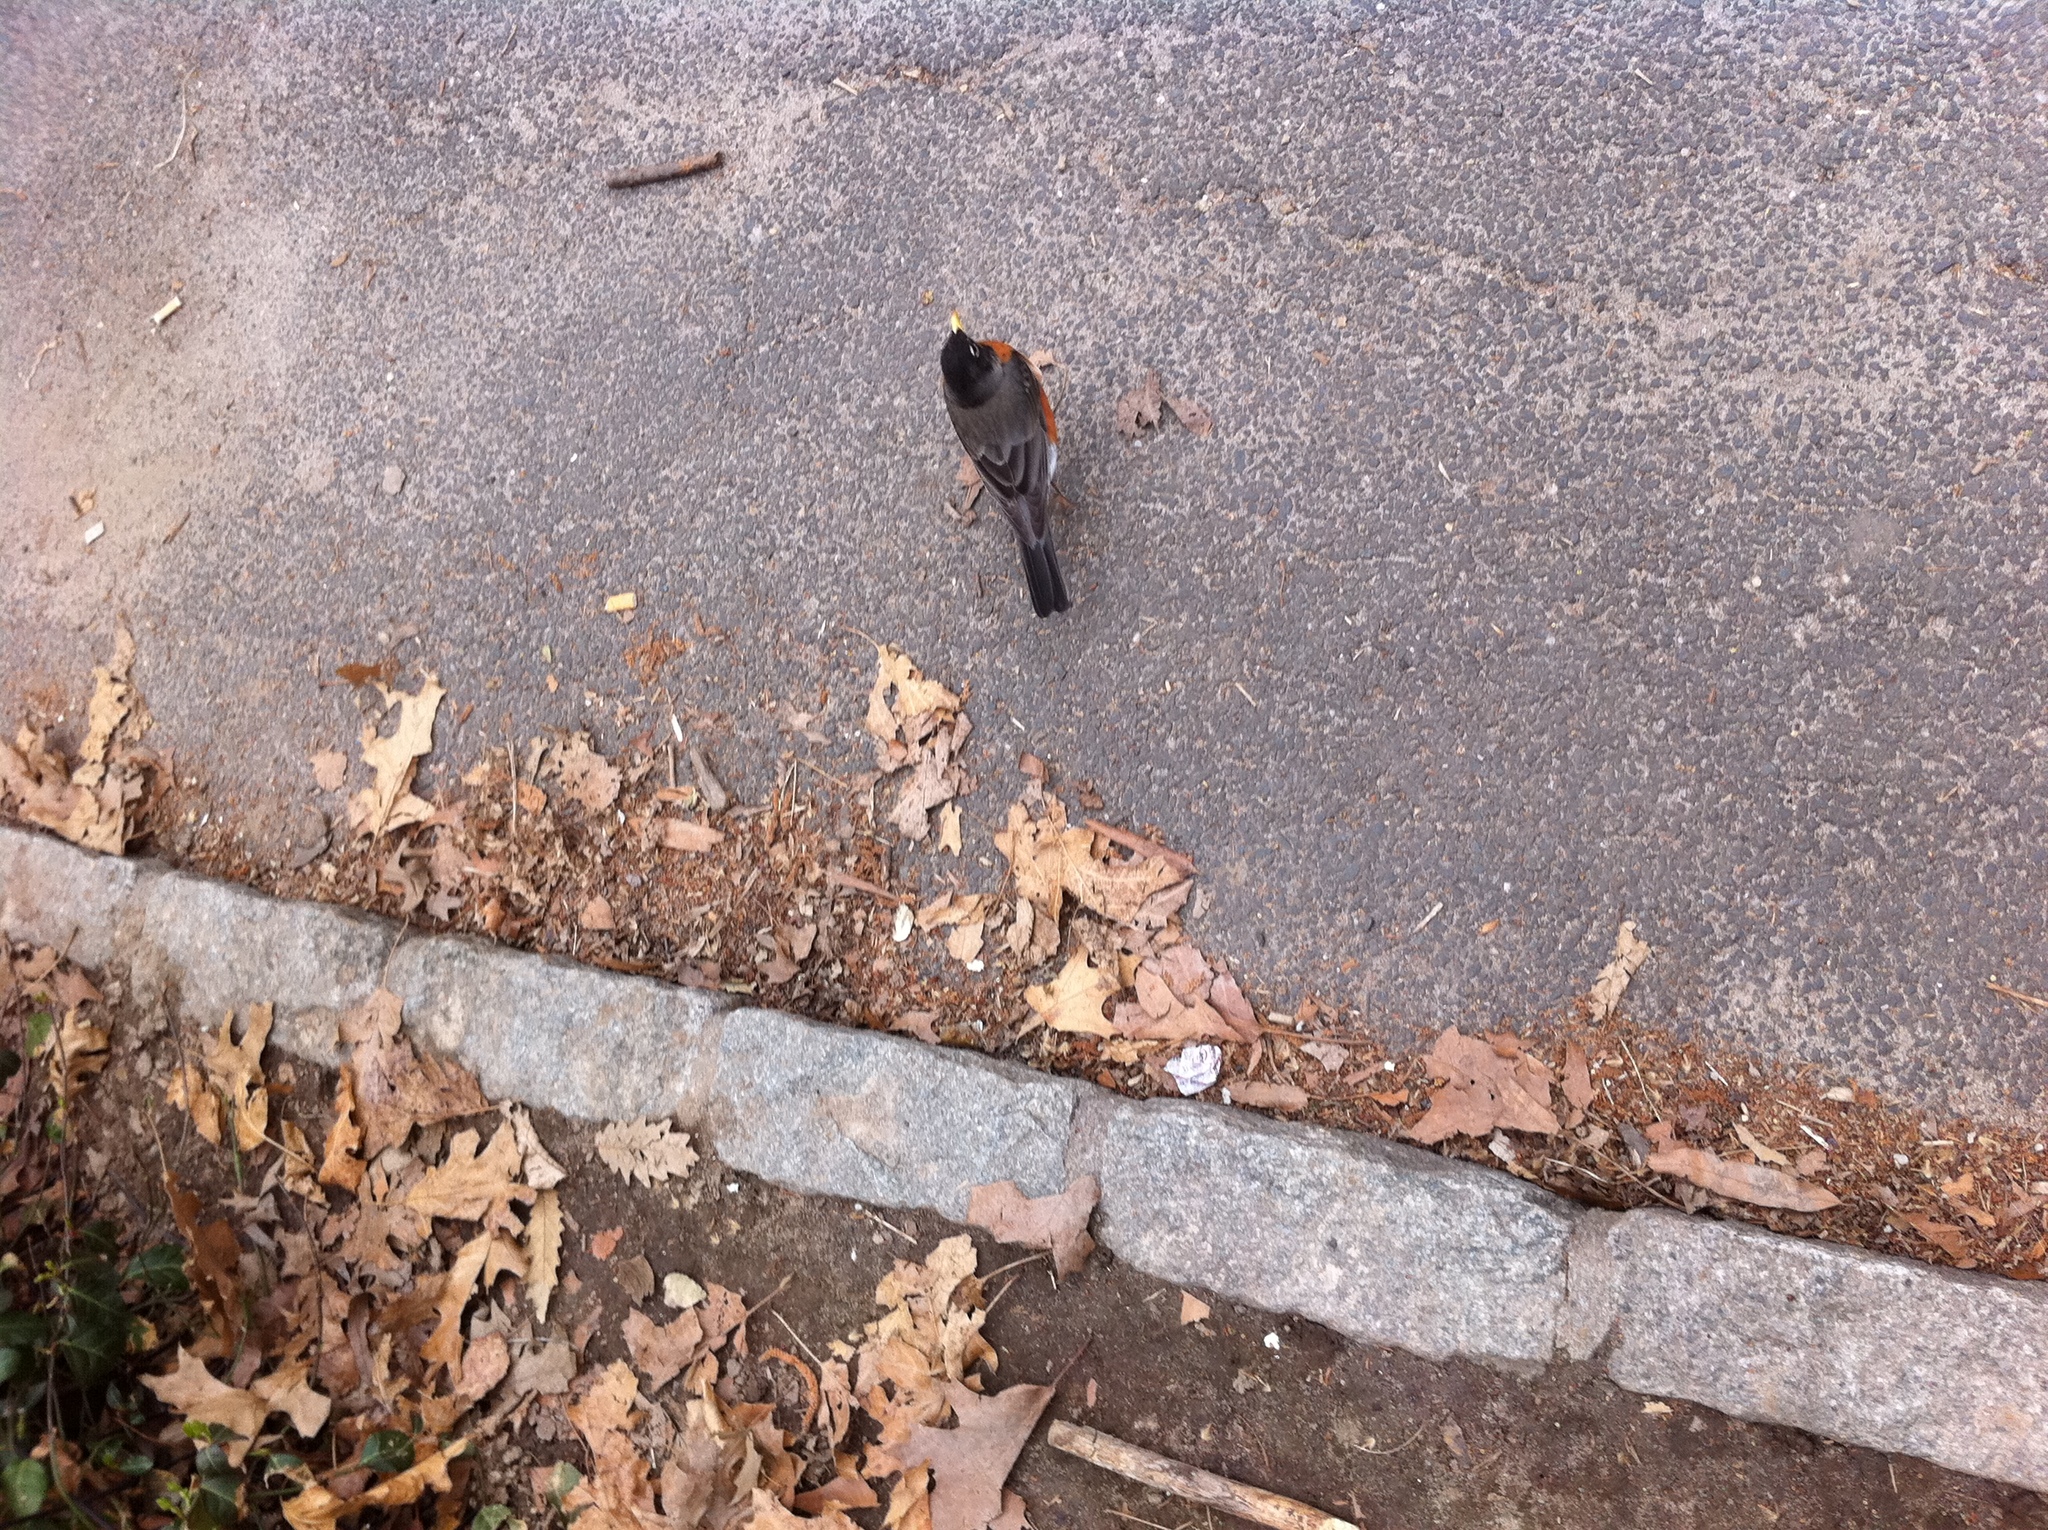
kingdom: Animalia
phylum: Chordata
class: Aves
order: Passeriformes
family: Turdidae
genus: Turdus
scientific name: Turdus migratorius
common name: American robin
